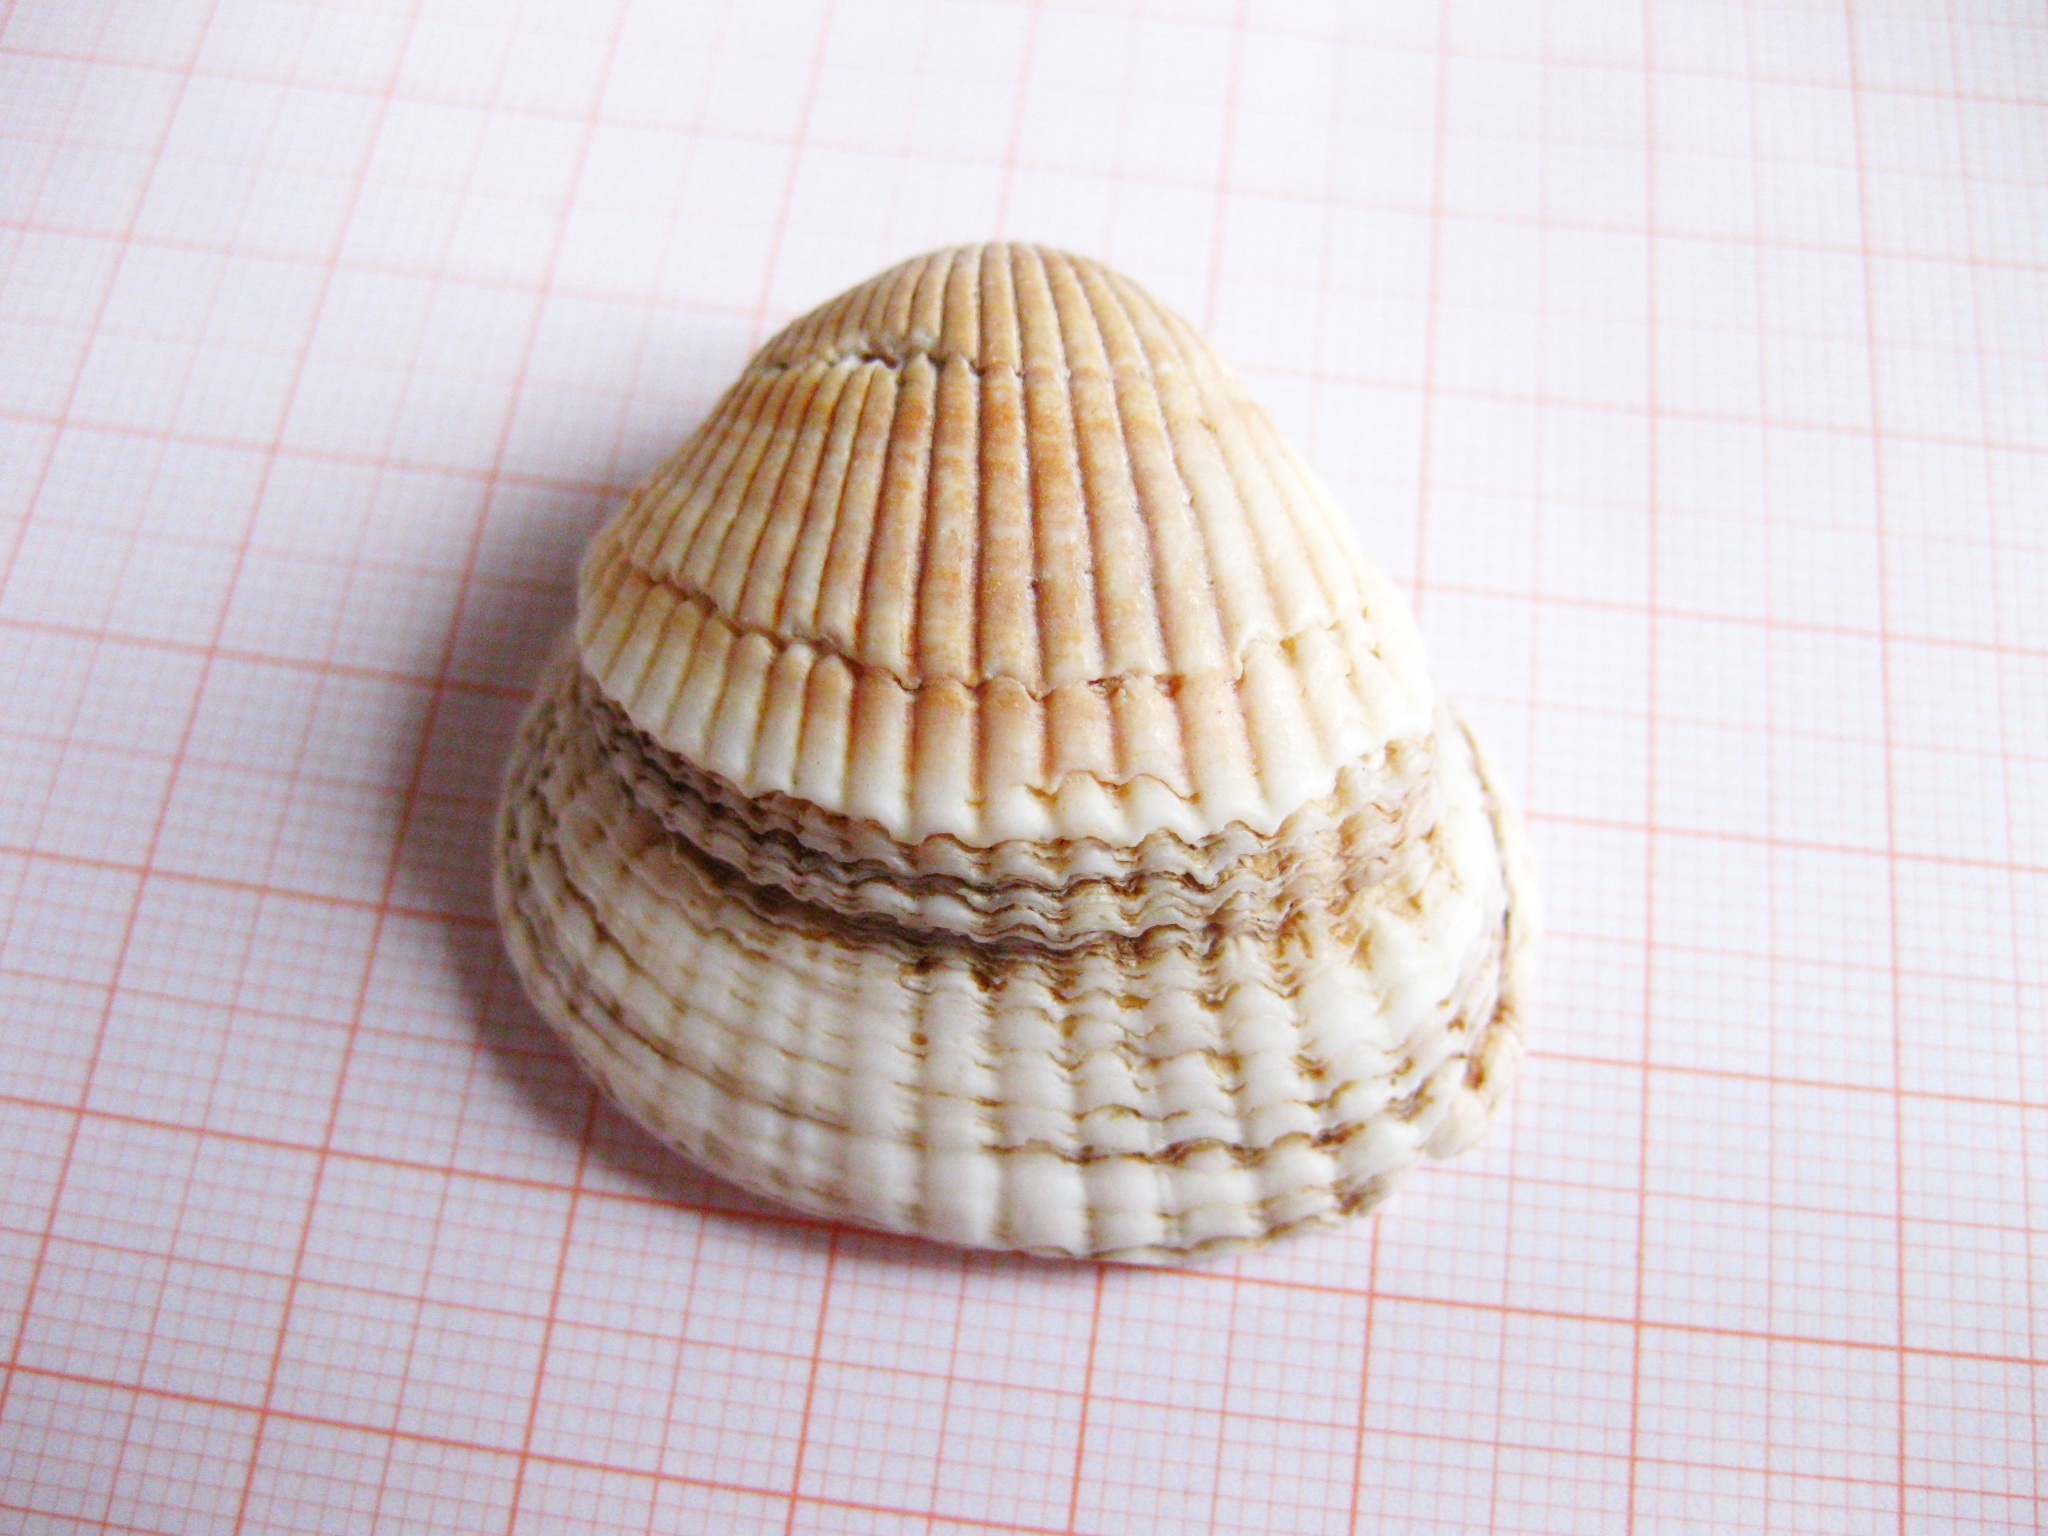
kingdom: Animalia
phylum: Mollusca
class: Bivalvia
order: Arcida
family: Arcidae
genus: Anadara
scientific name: Anadara kagoshimensis
